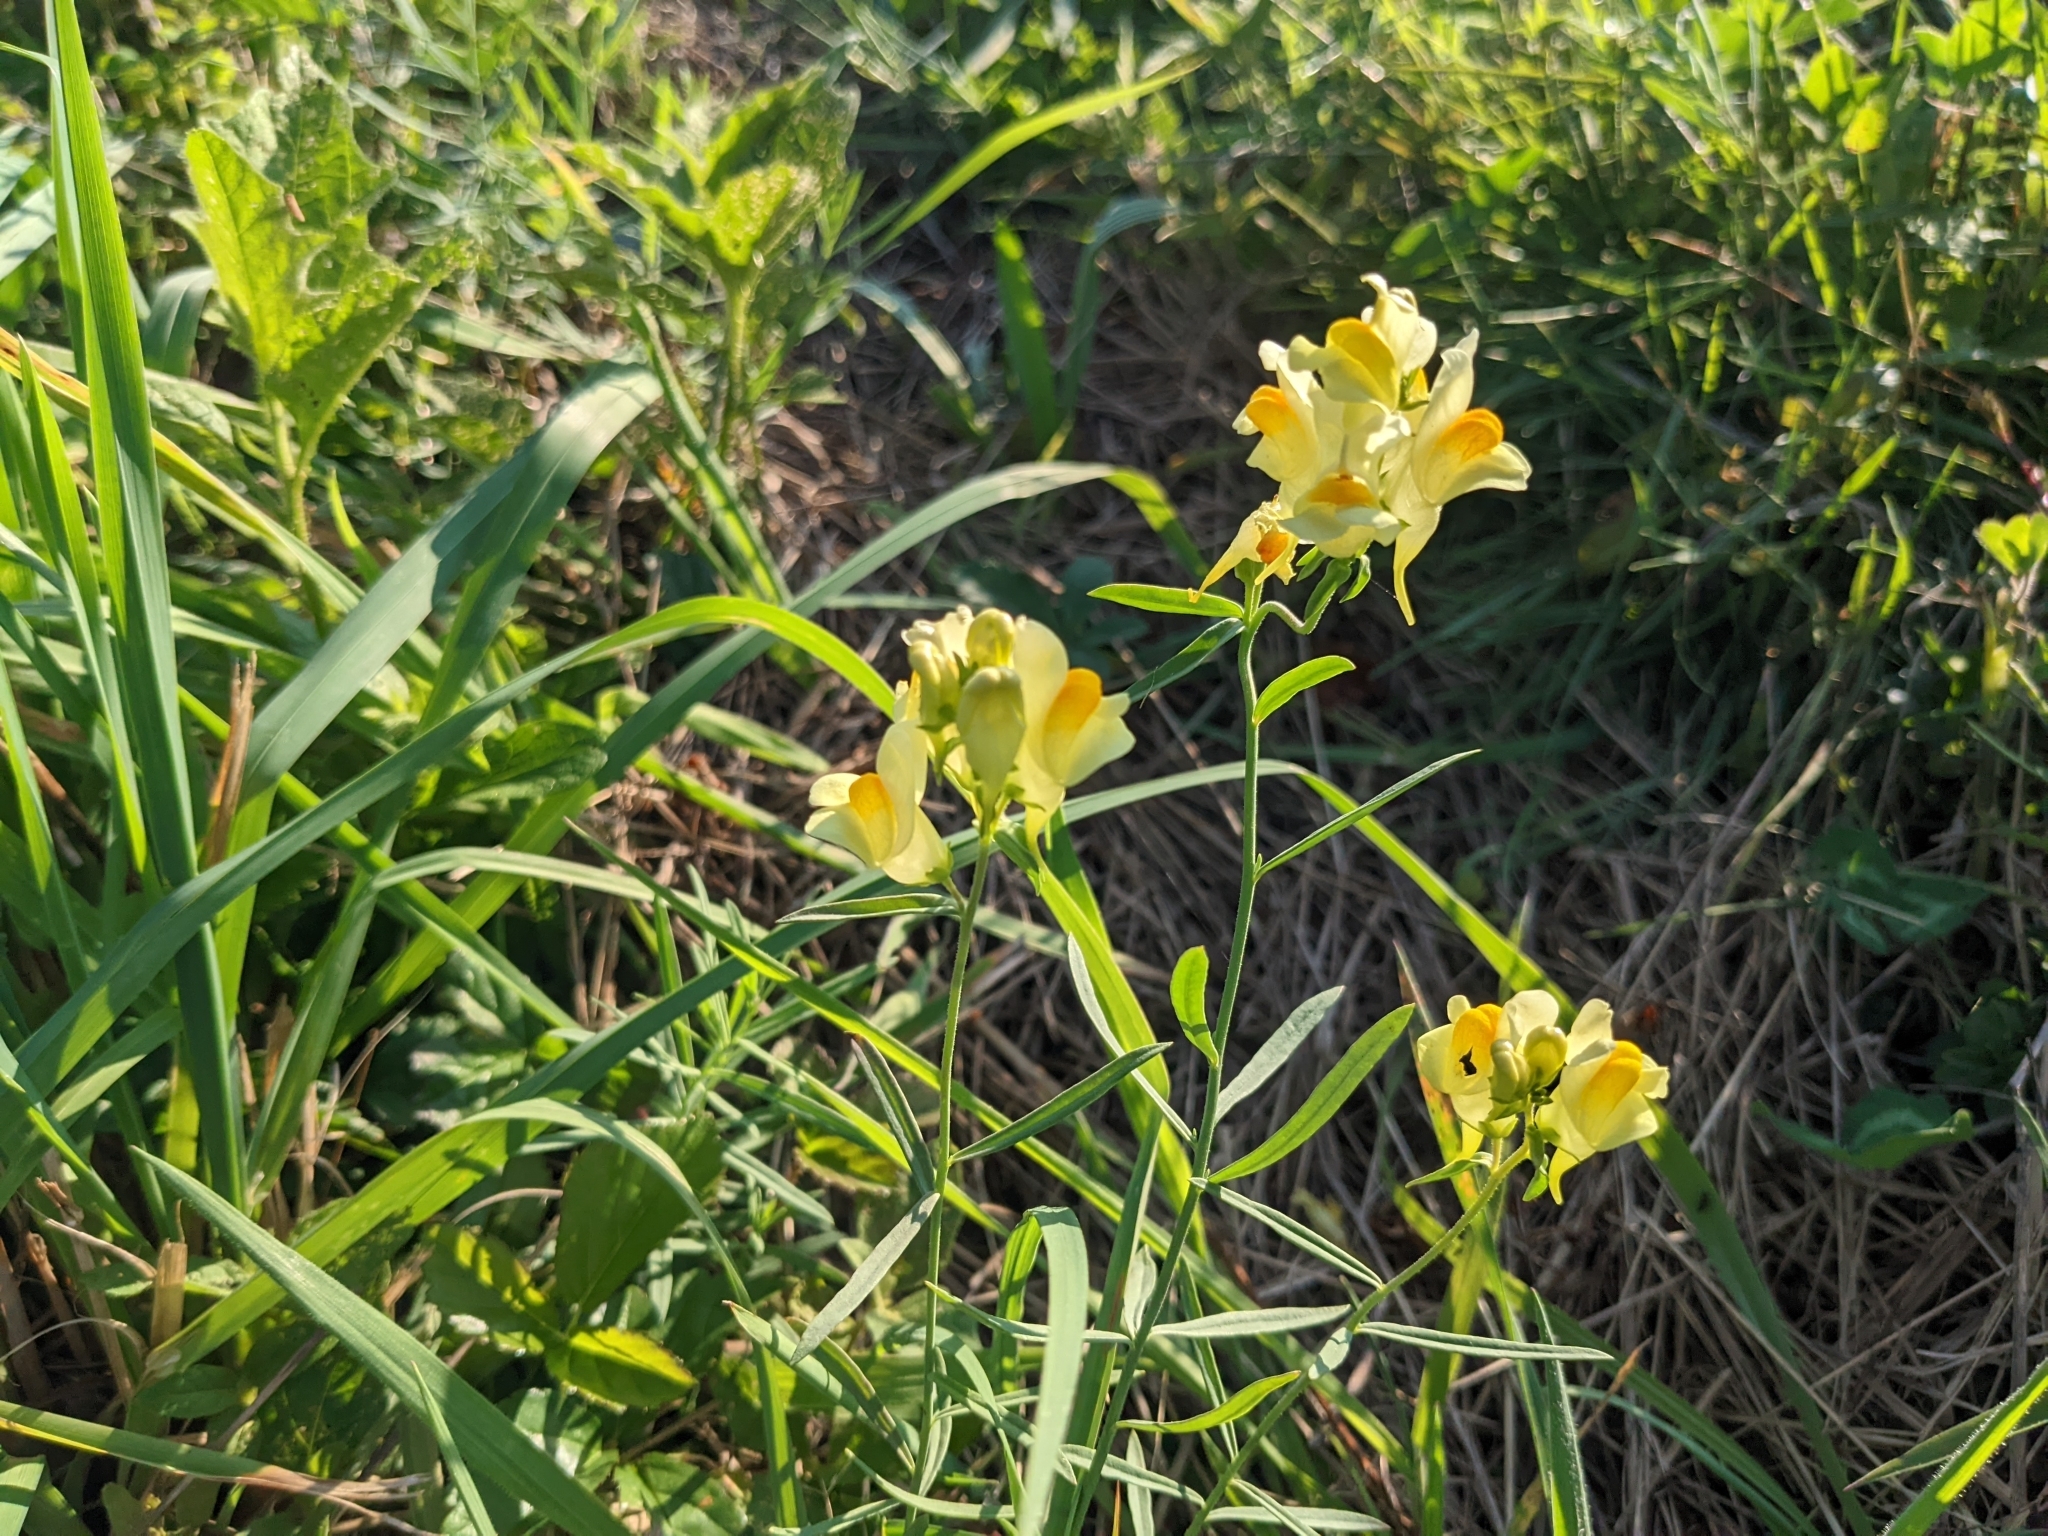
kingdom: Plantae
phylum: Tracheophyta
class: Magnoliopsida
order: Lamiales
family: Plantaginaceae
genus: Linaria
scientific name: Linaria vulgaris
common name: Butter and eggs
